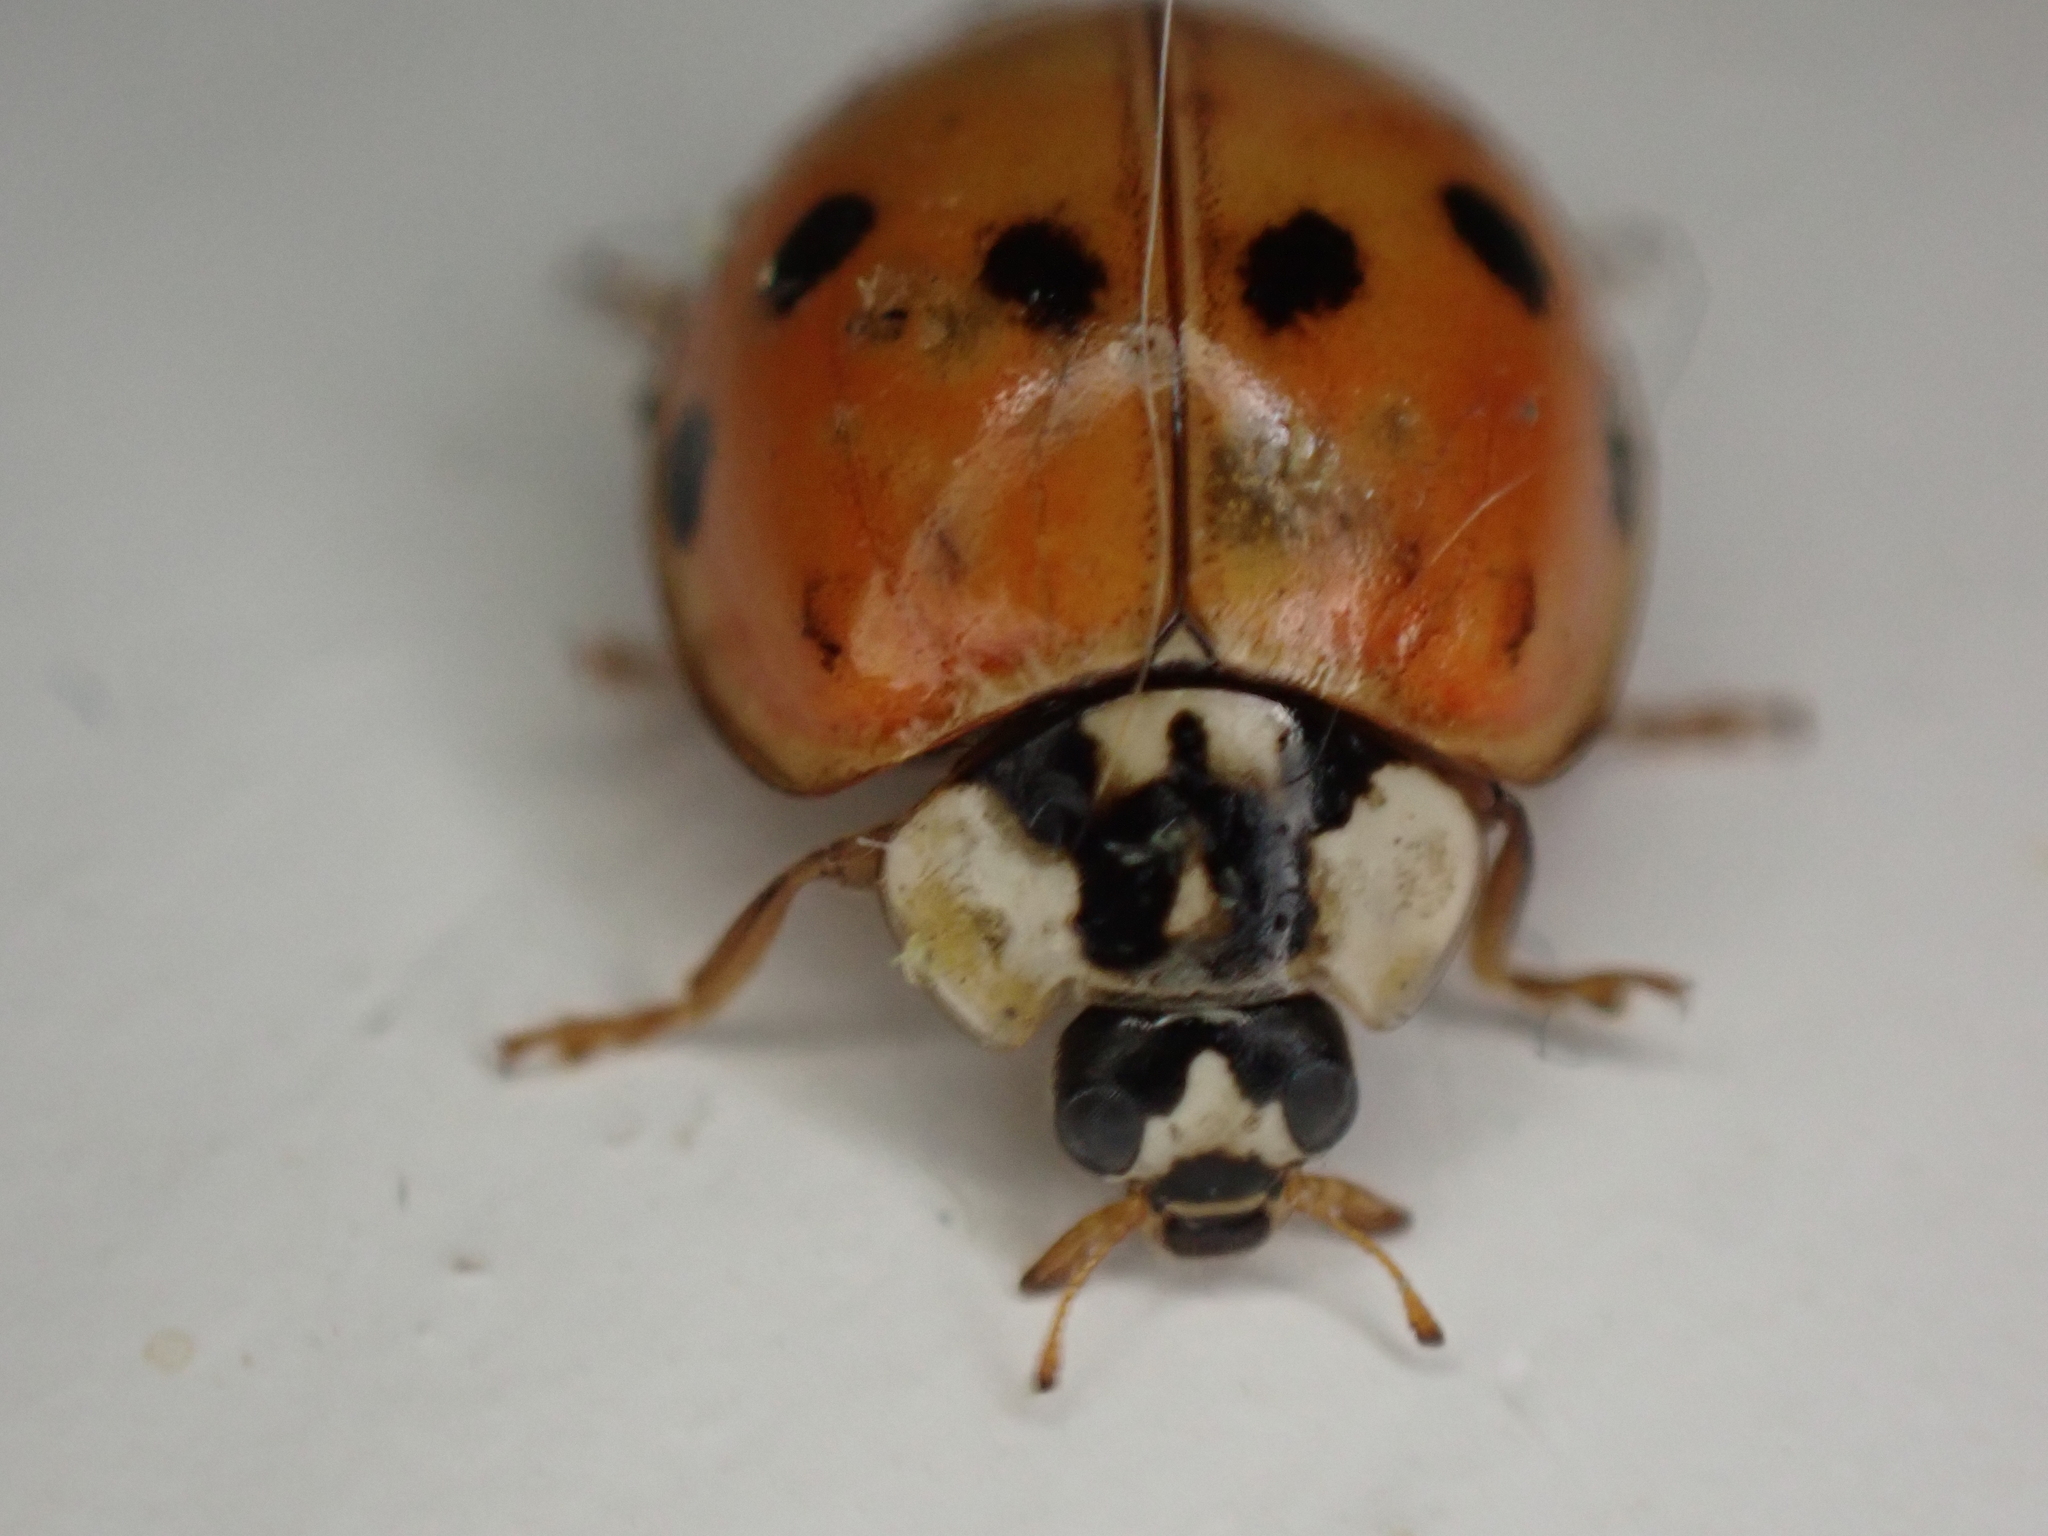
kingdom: Animalia
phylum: Arthropoda
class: Insecta
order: Coleoptera
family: Coccinellidae
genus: Harmonia
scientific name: Harmonia axyridis
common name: Harlequin ladybird
